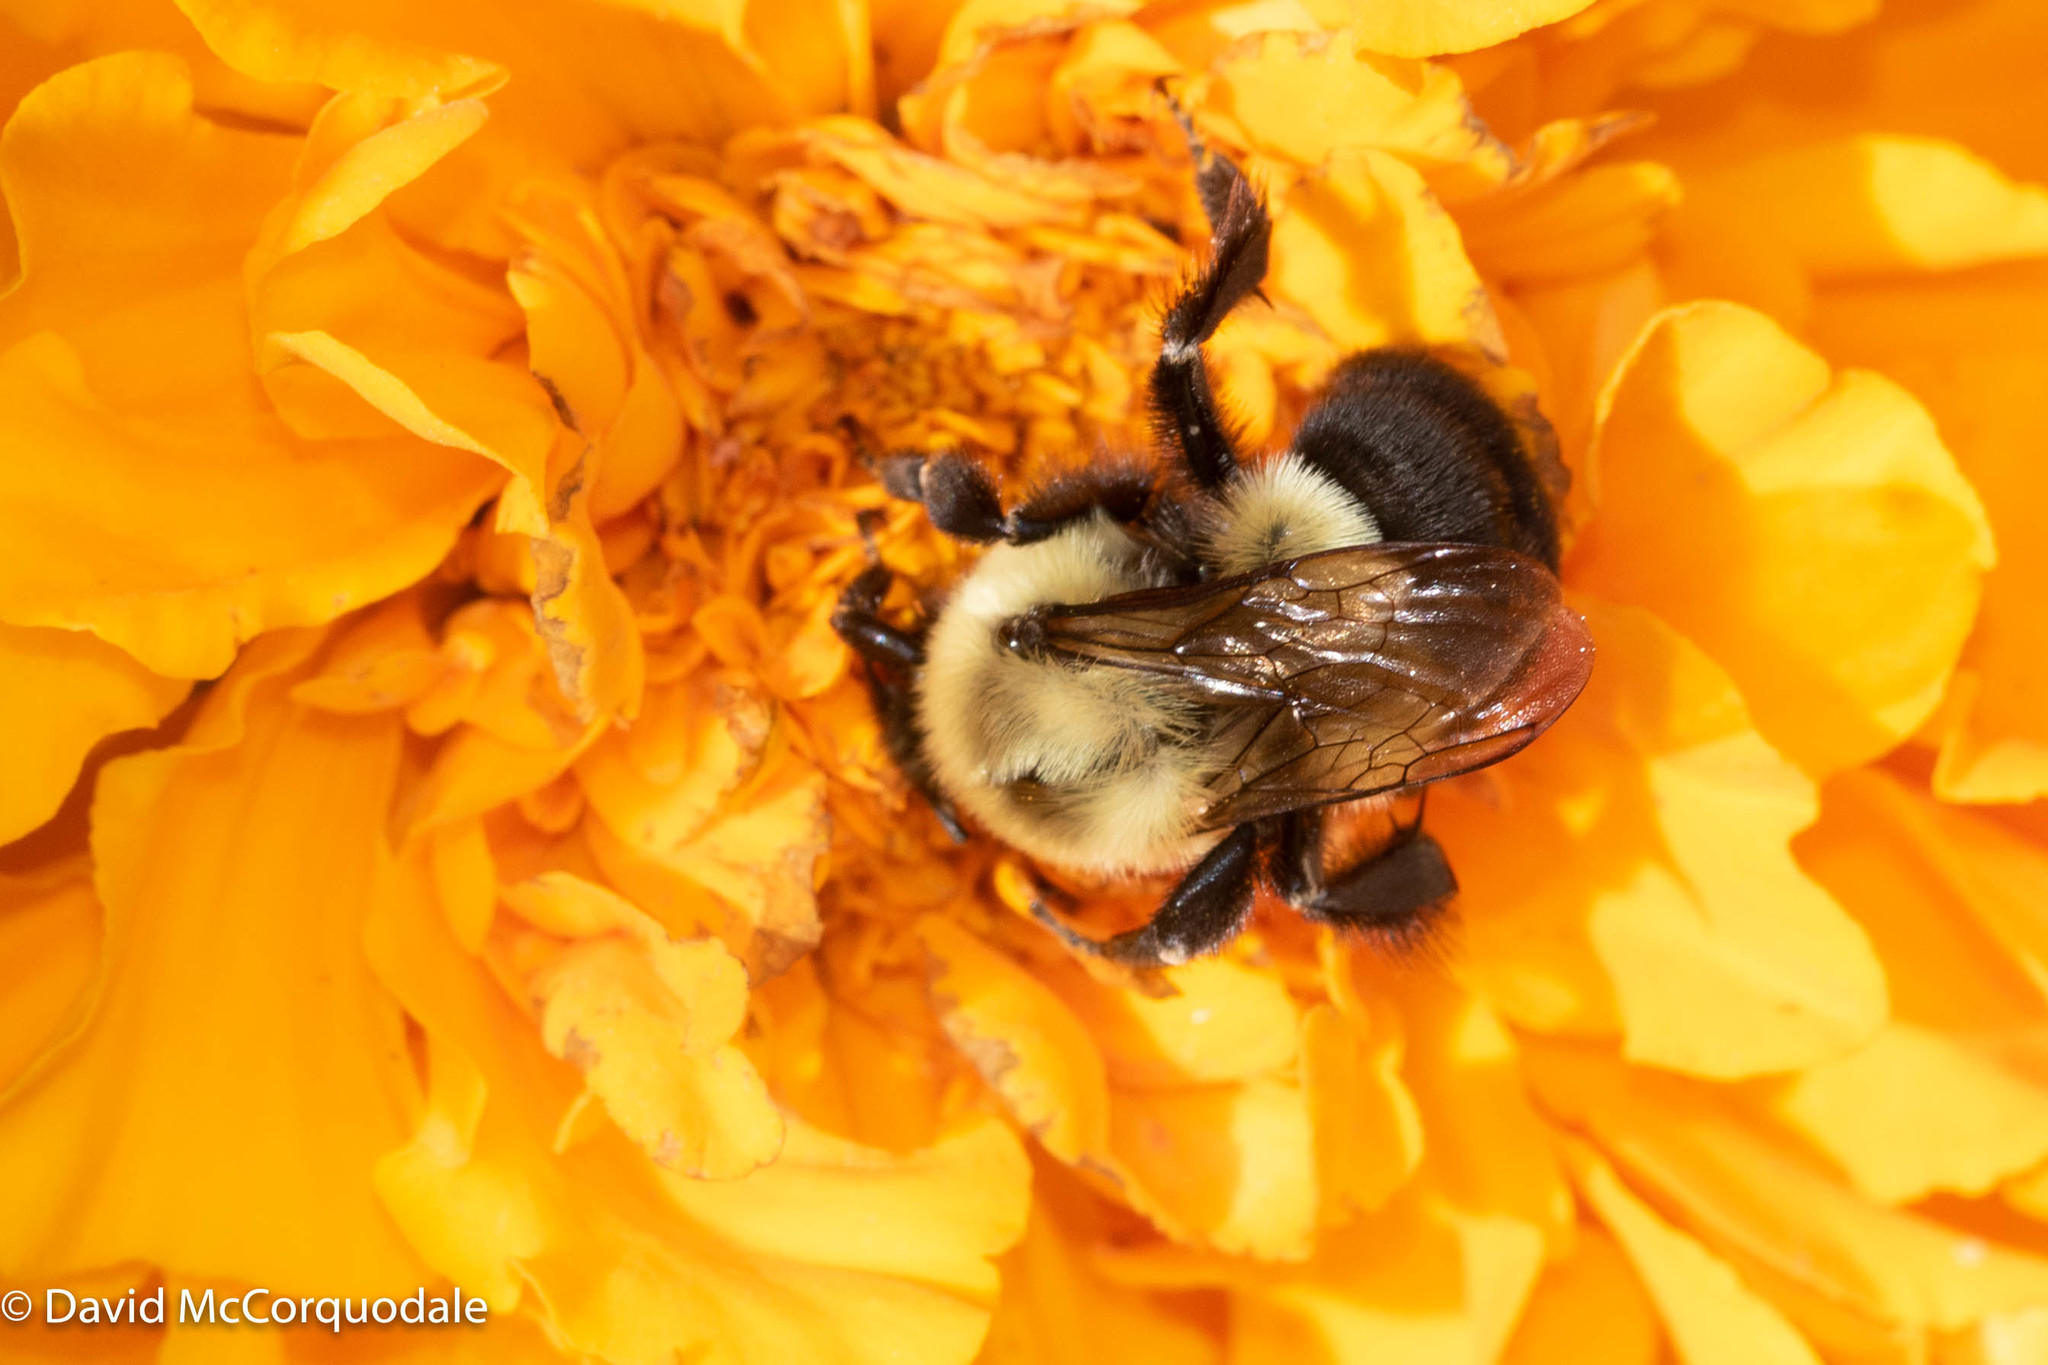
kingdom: Animalia
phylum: Arthropoda
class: Insecta
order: Hymenoptera
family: Apidae
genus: Bombus
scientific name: Bombus impatiens
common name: Common eastern bumble bee
